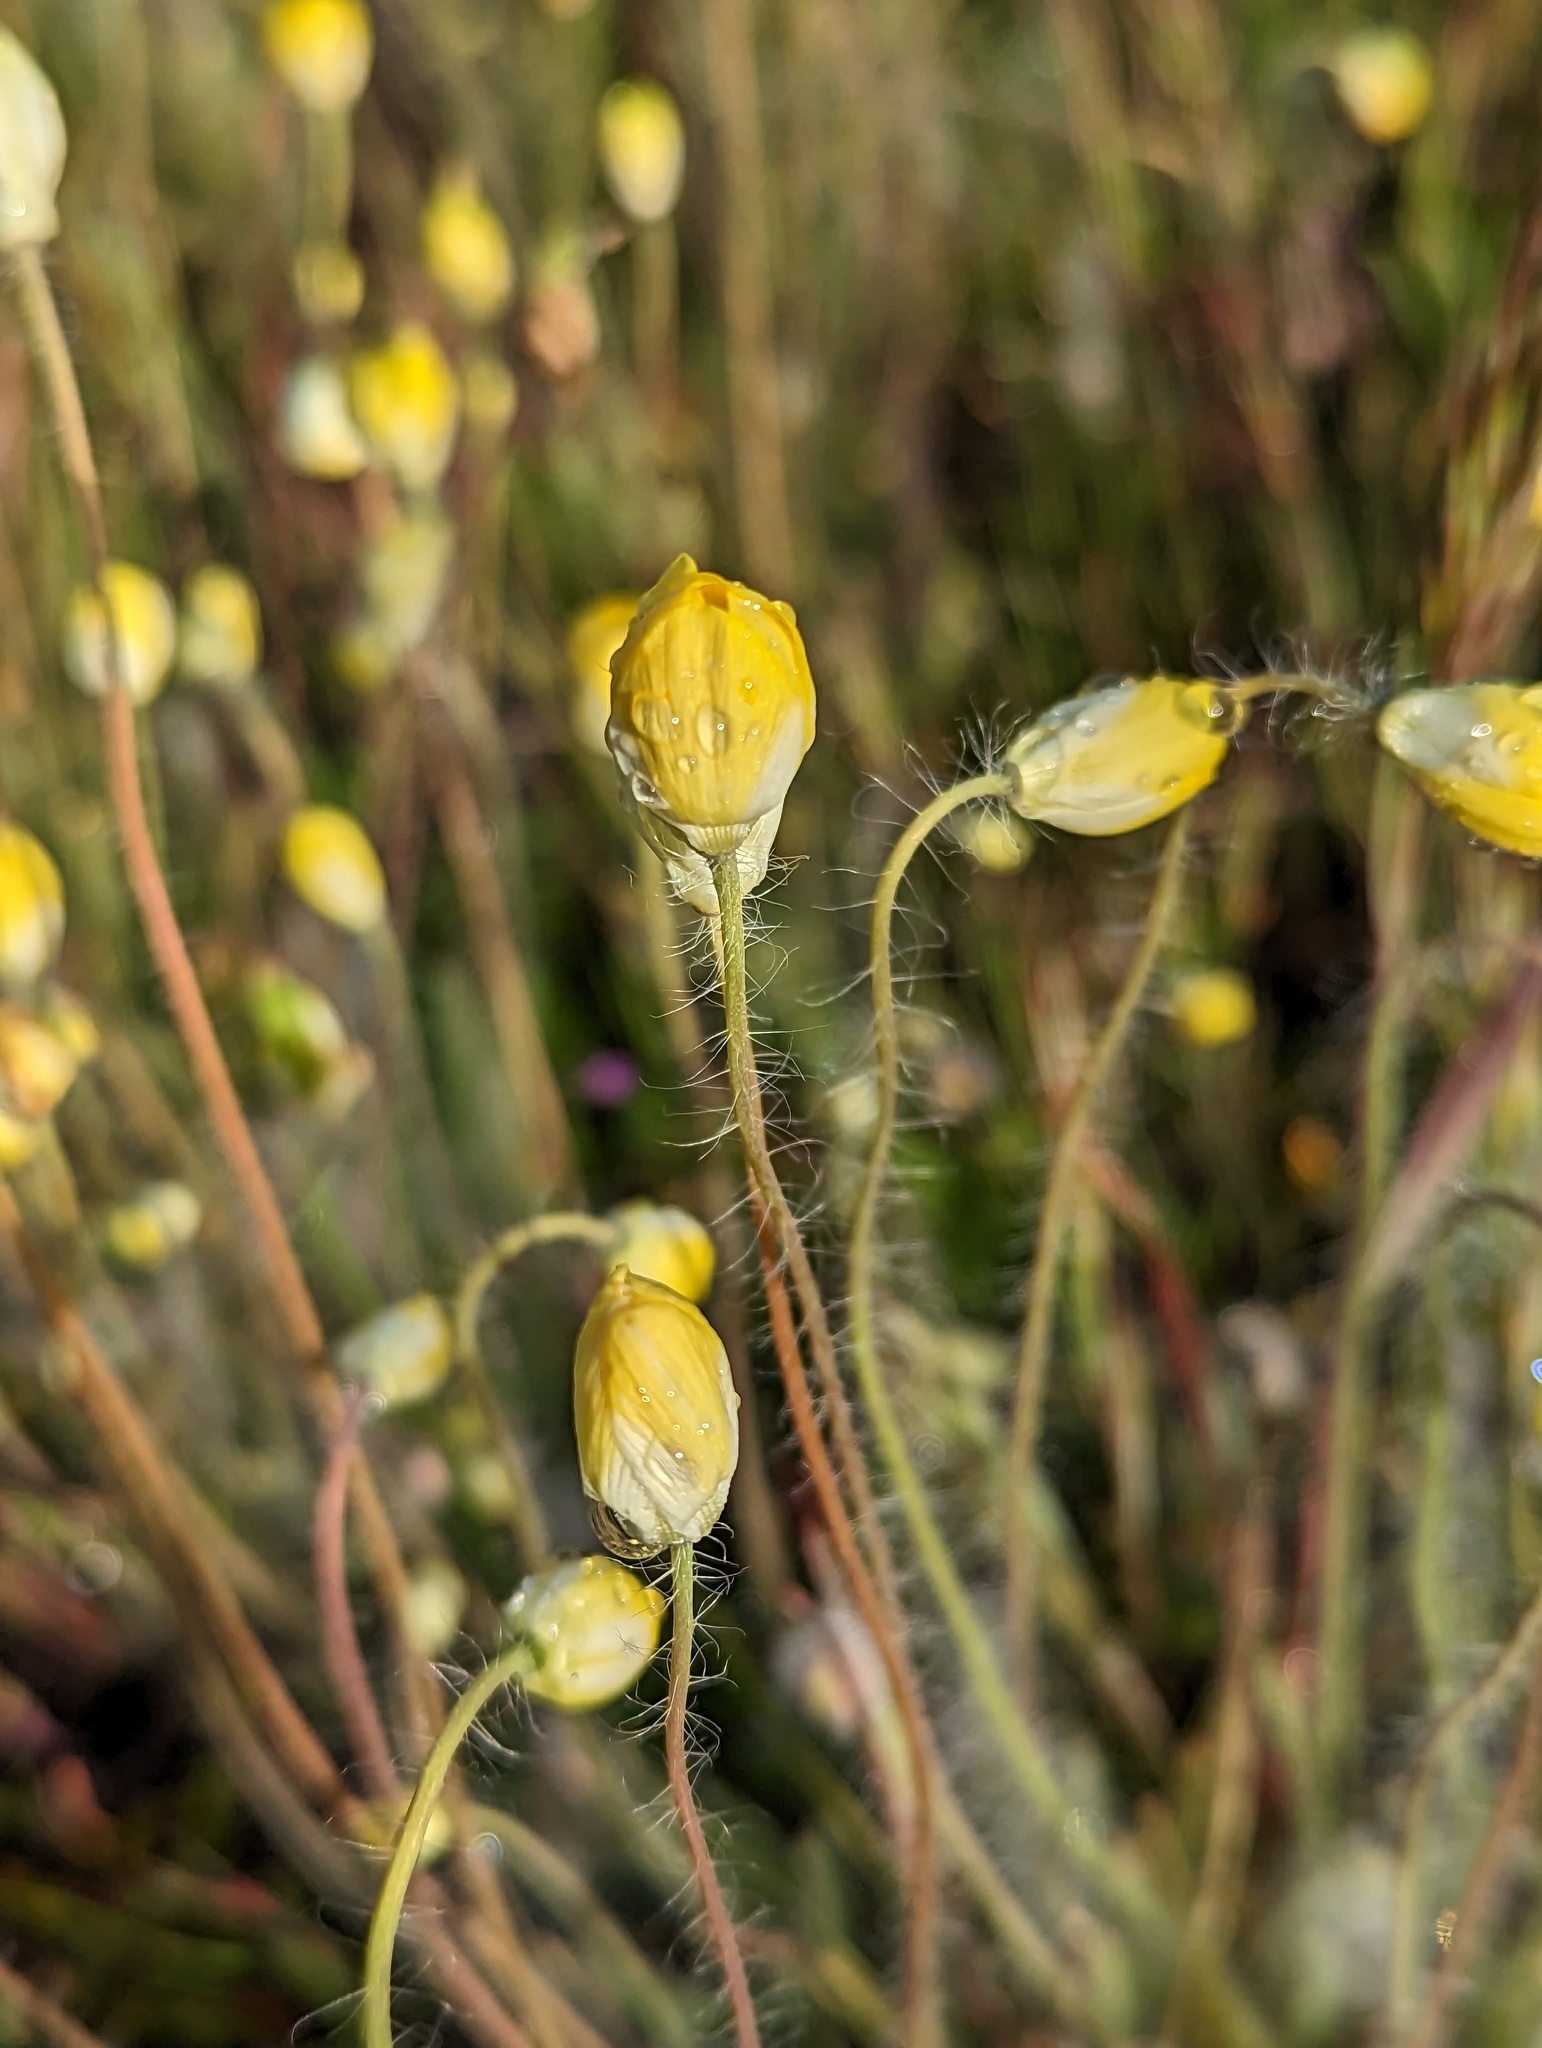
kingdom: Plantae
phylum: Tracheophyta
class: Magnoliopsida
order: Ranunculales
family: Papaveraceae
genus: Platystemon
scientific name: Platystemon californicus
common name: Cream-cups
